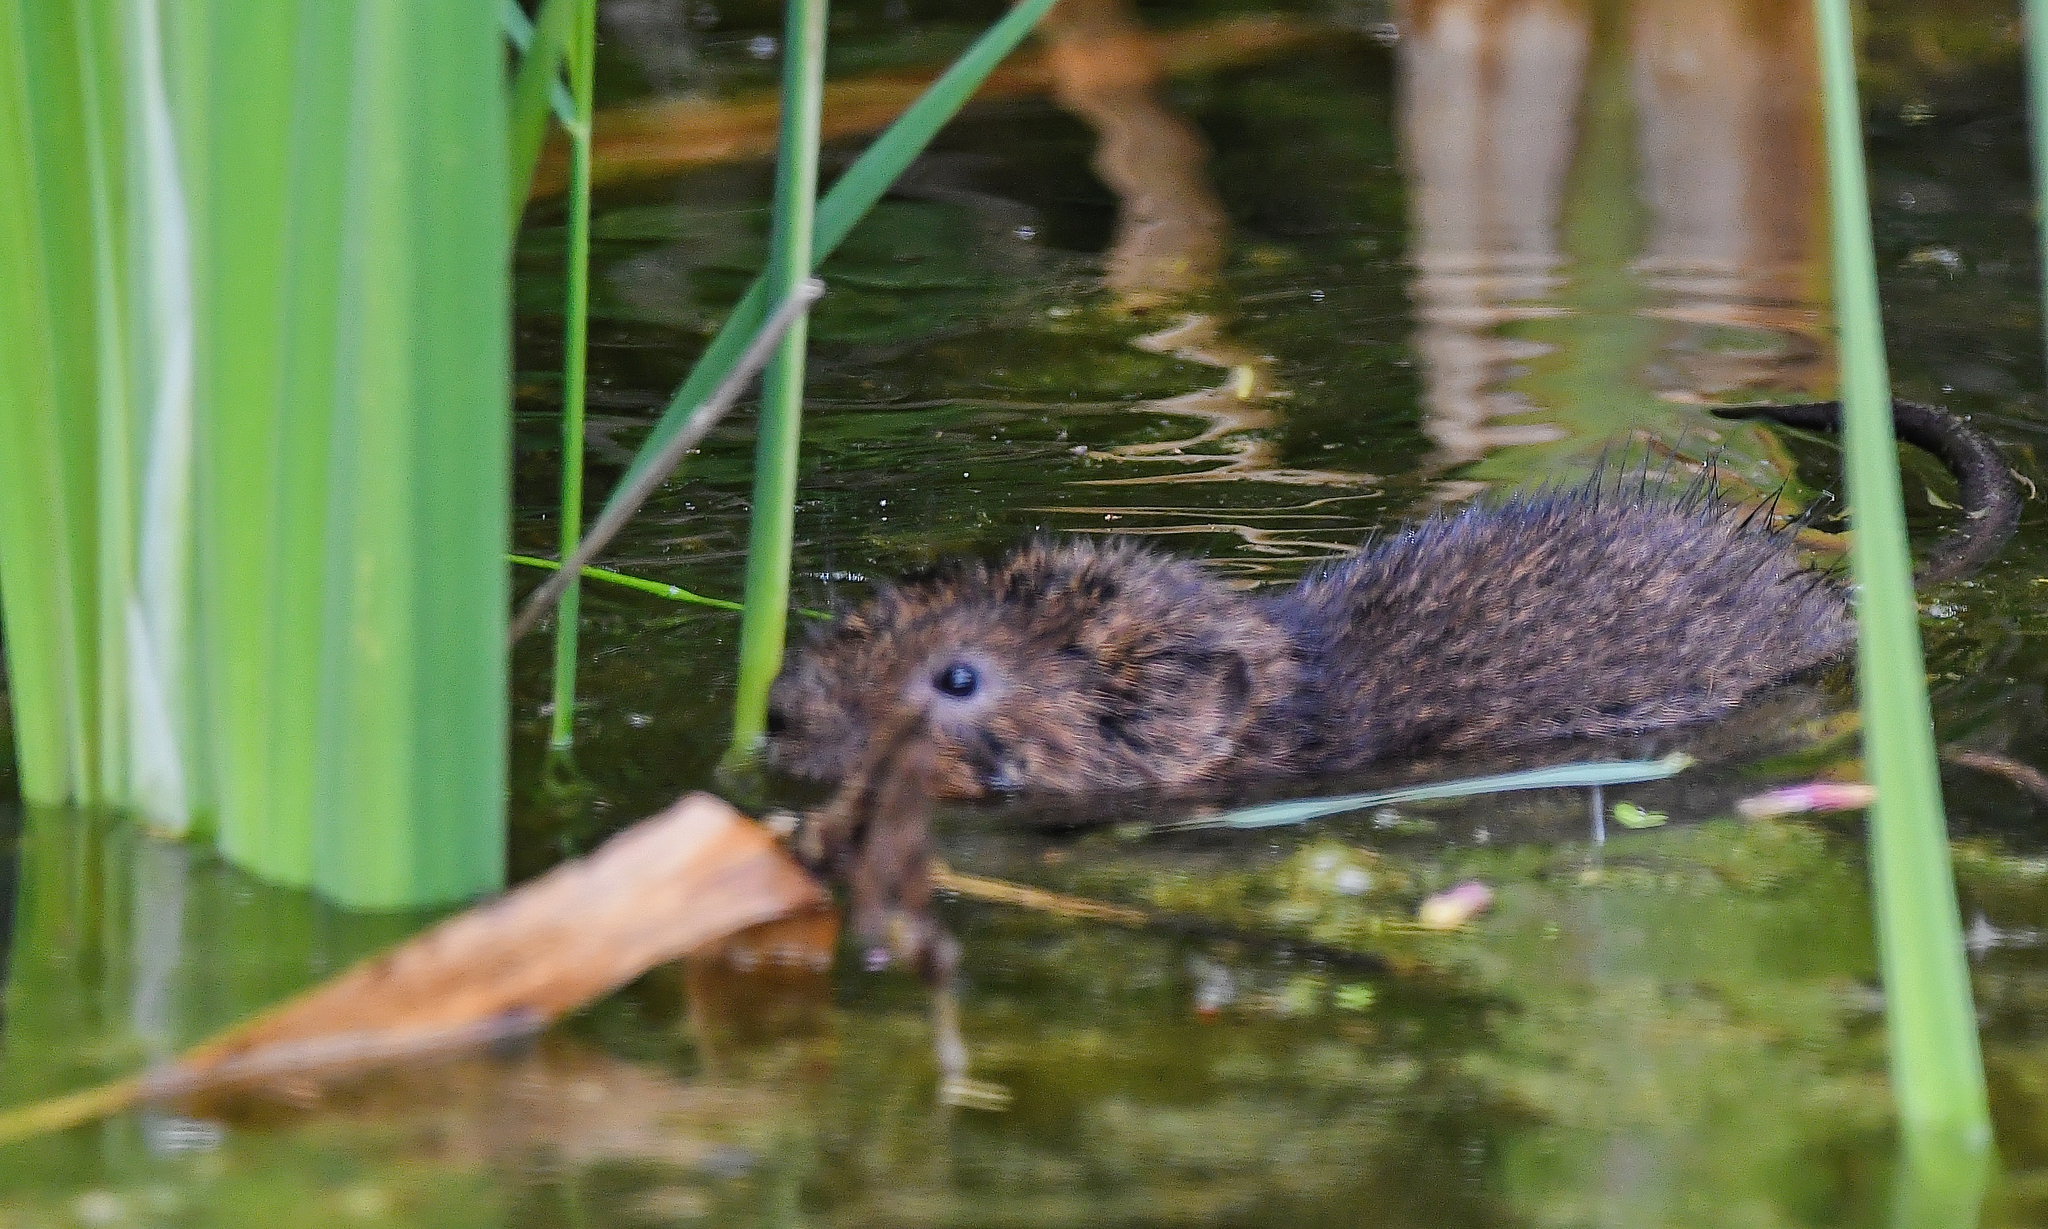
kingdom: Animalia
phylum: Chordata
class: Mammalia
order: Rodentia
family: Cricetidae
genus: Arvicola
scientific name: Arvicola amphibius
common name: European water vole
